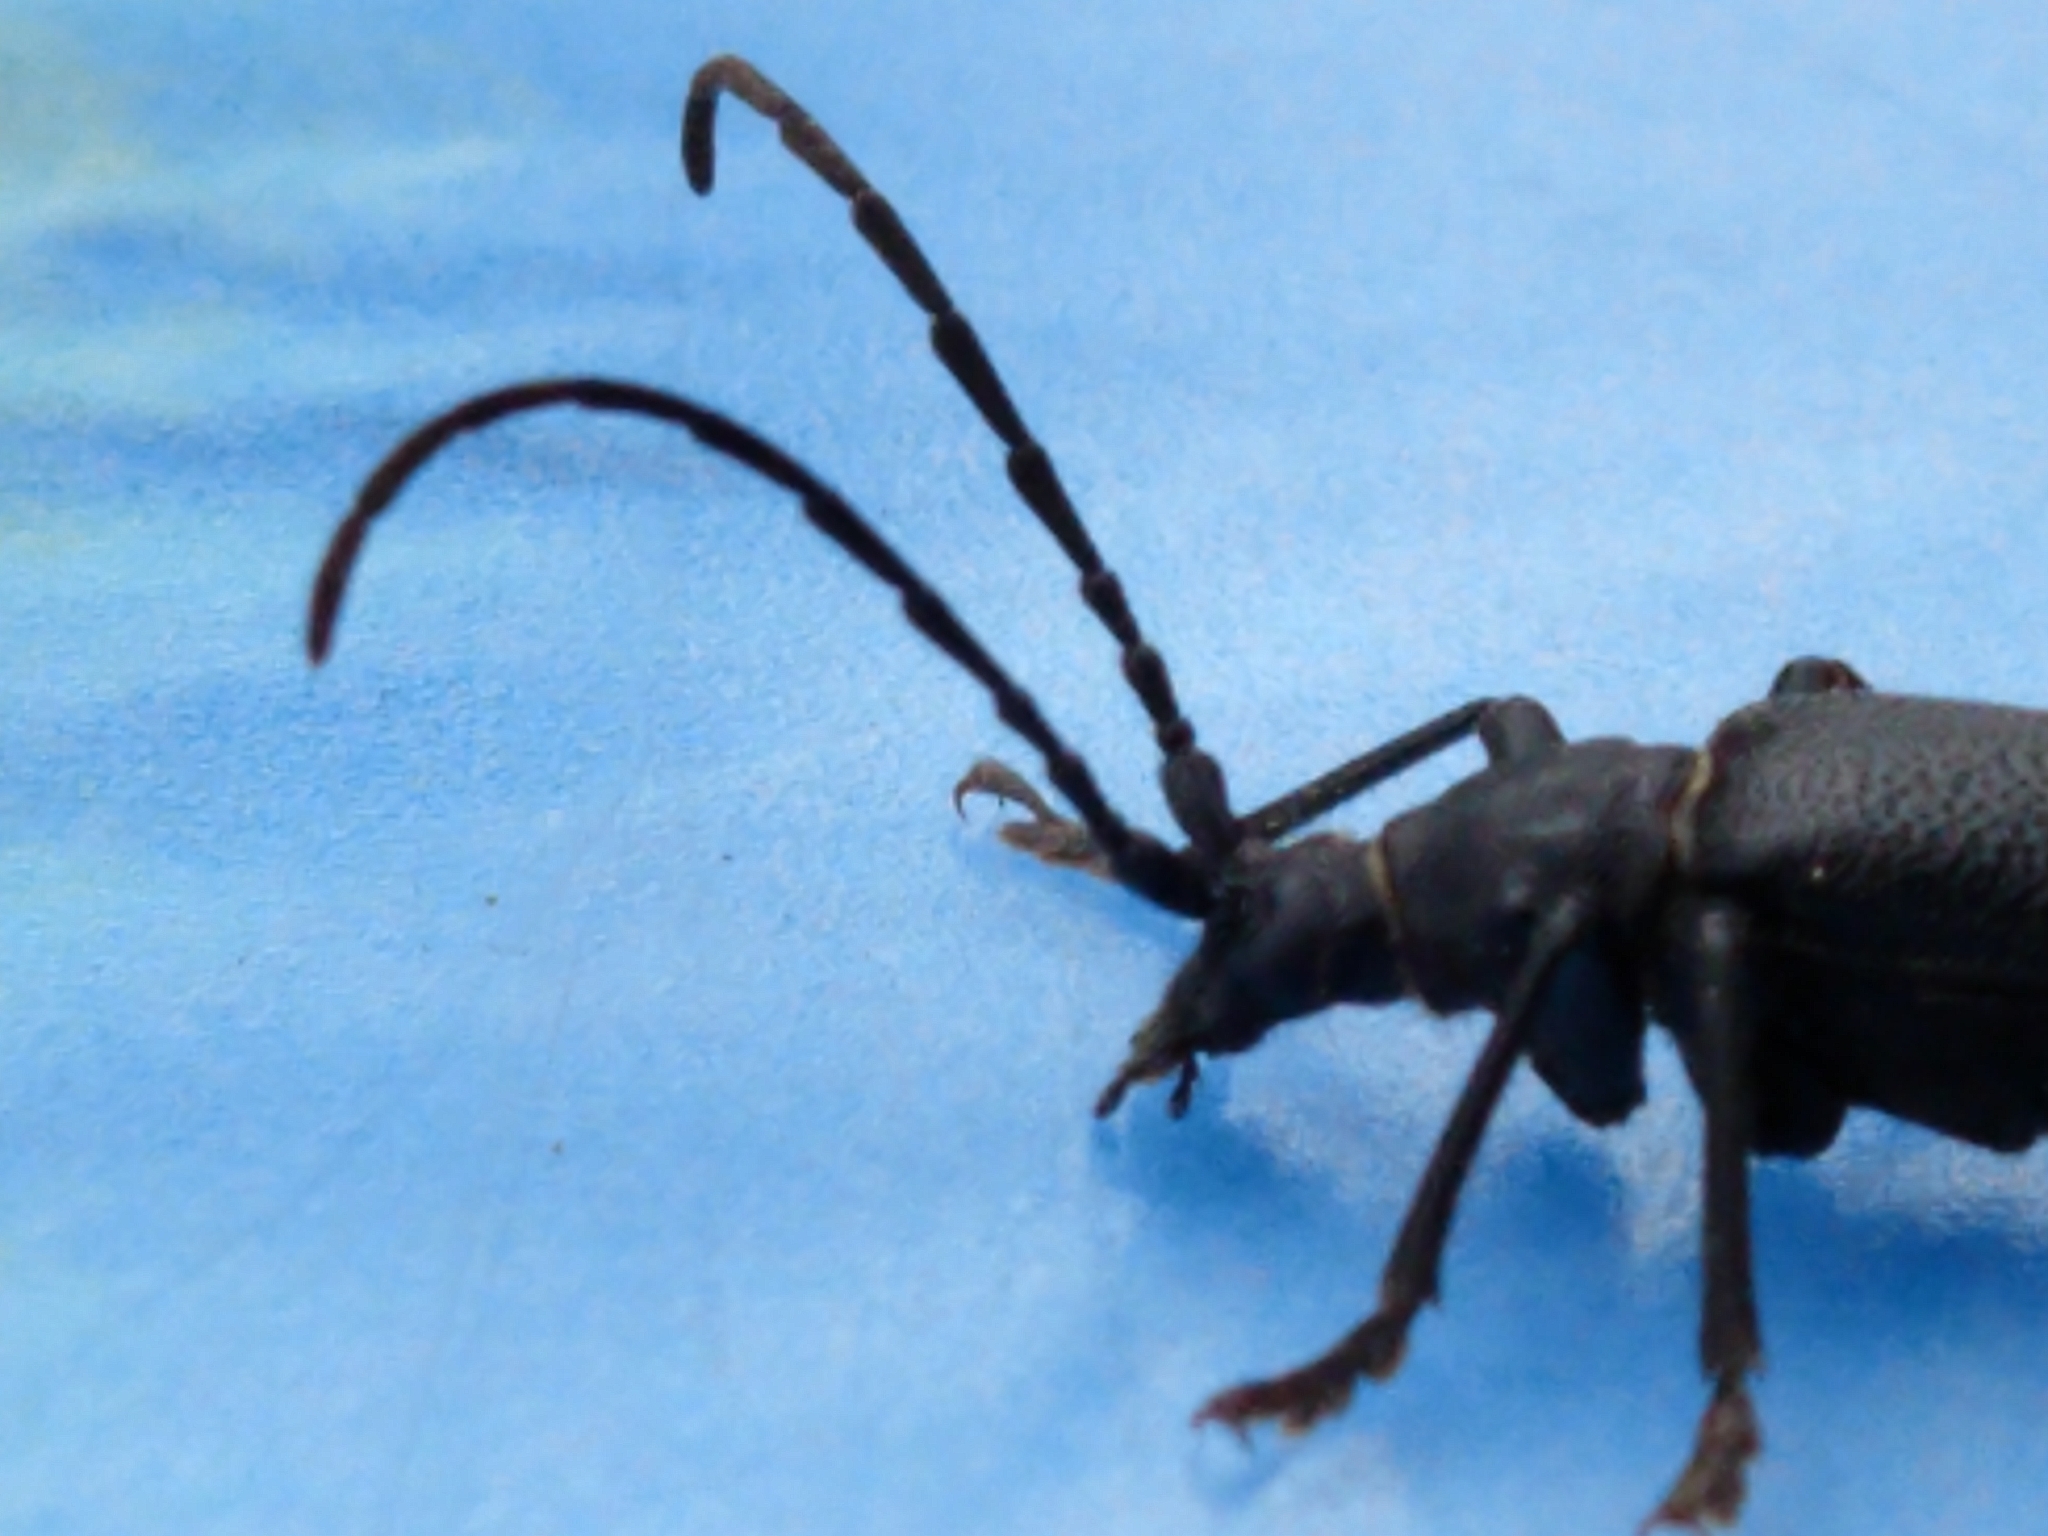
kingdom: Animalia
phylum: Arthropoda
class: Insecta
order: Coleoptera
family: Cerambycidae
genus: Neanthophylax
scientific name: Neanthophylax tenebrosus
